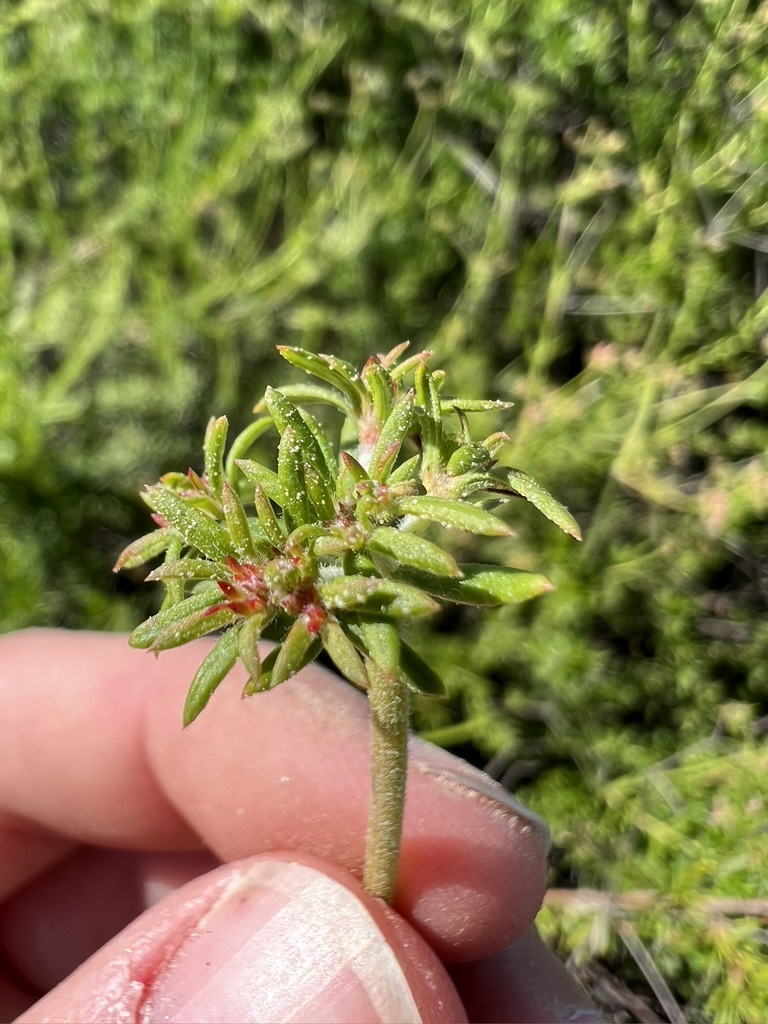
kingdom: Plantae
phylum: Tracheophyta
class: Magnoliopsida
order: Caryophyllales
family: Polygonaceae
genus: Eriogonum
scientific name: Eriogonum fasciculatum
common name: California wild buckwheat
